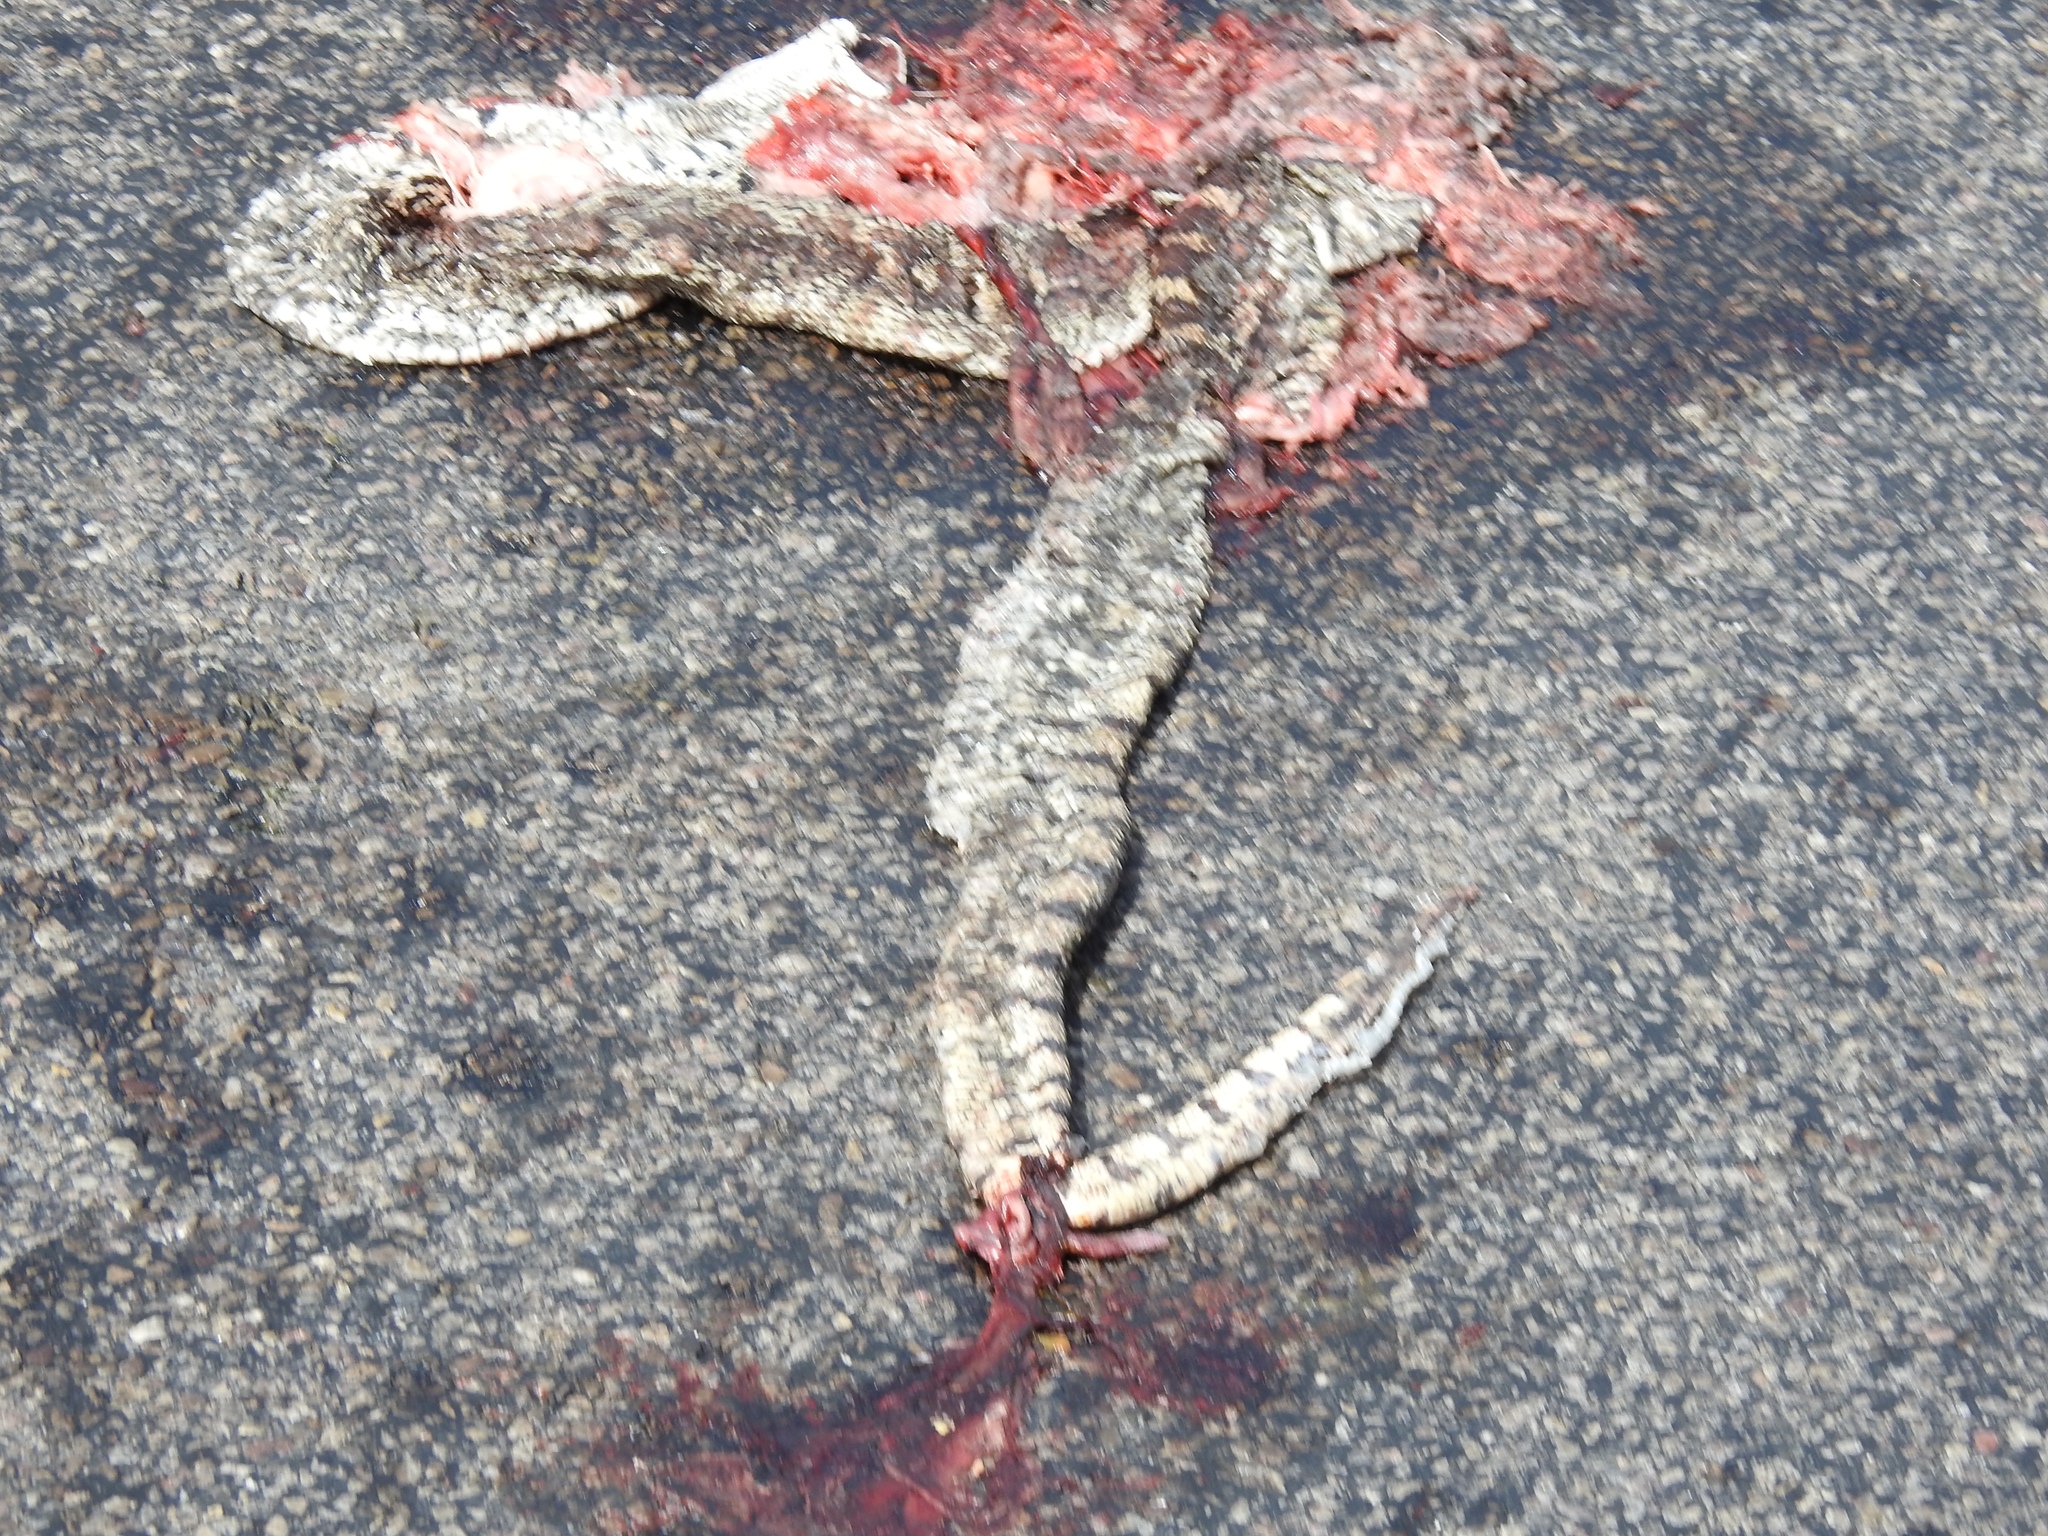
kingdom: Animalia
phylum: Chordata
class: Squamata
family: Colubridae
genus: Pituophis
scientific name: Pituophis catenifer
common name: Gopher snake
